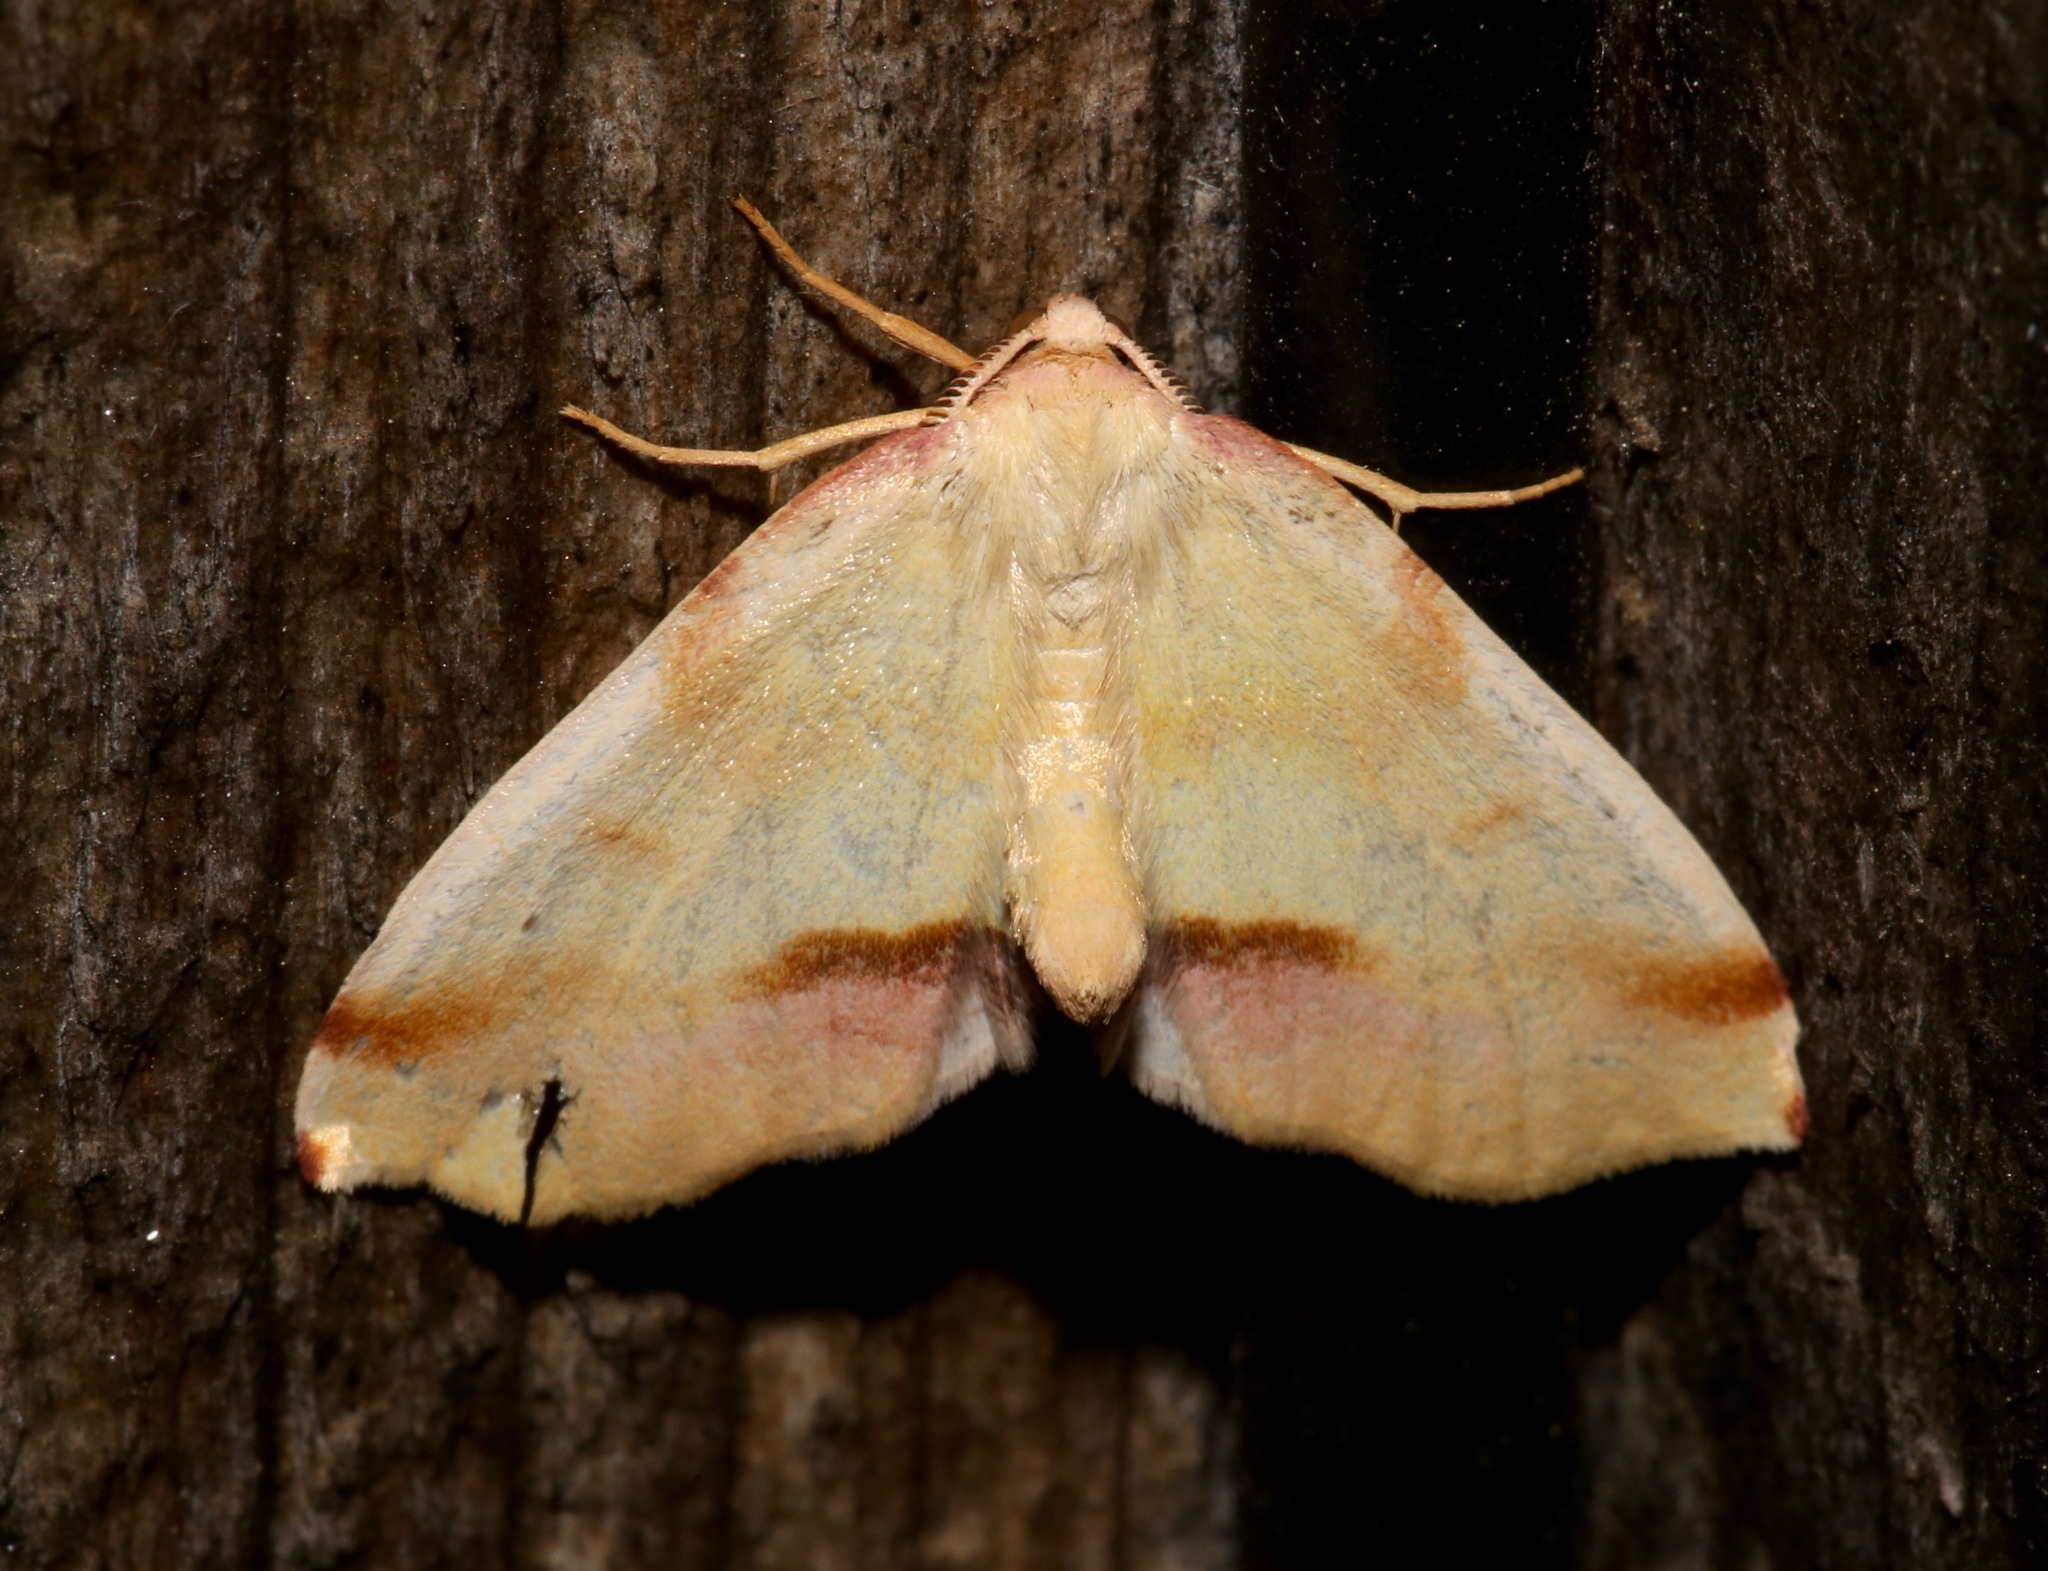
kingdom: Animalia
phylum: Arthropoda
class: Insecta
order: Lepidoptera
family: Geometridae
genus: Plagodis
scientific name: Plagodis serinaria
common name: Lemon plagodis
